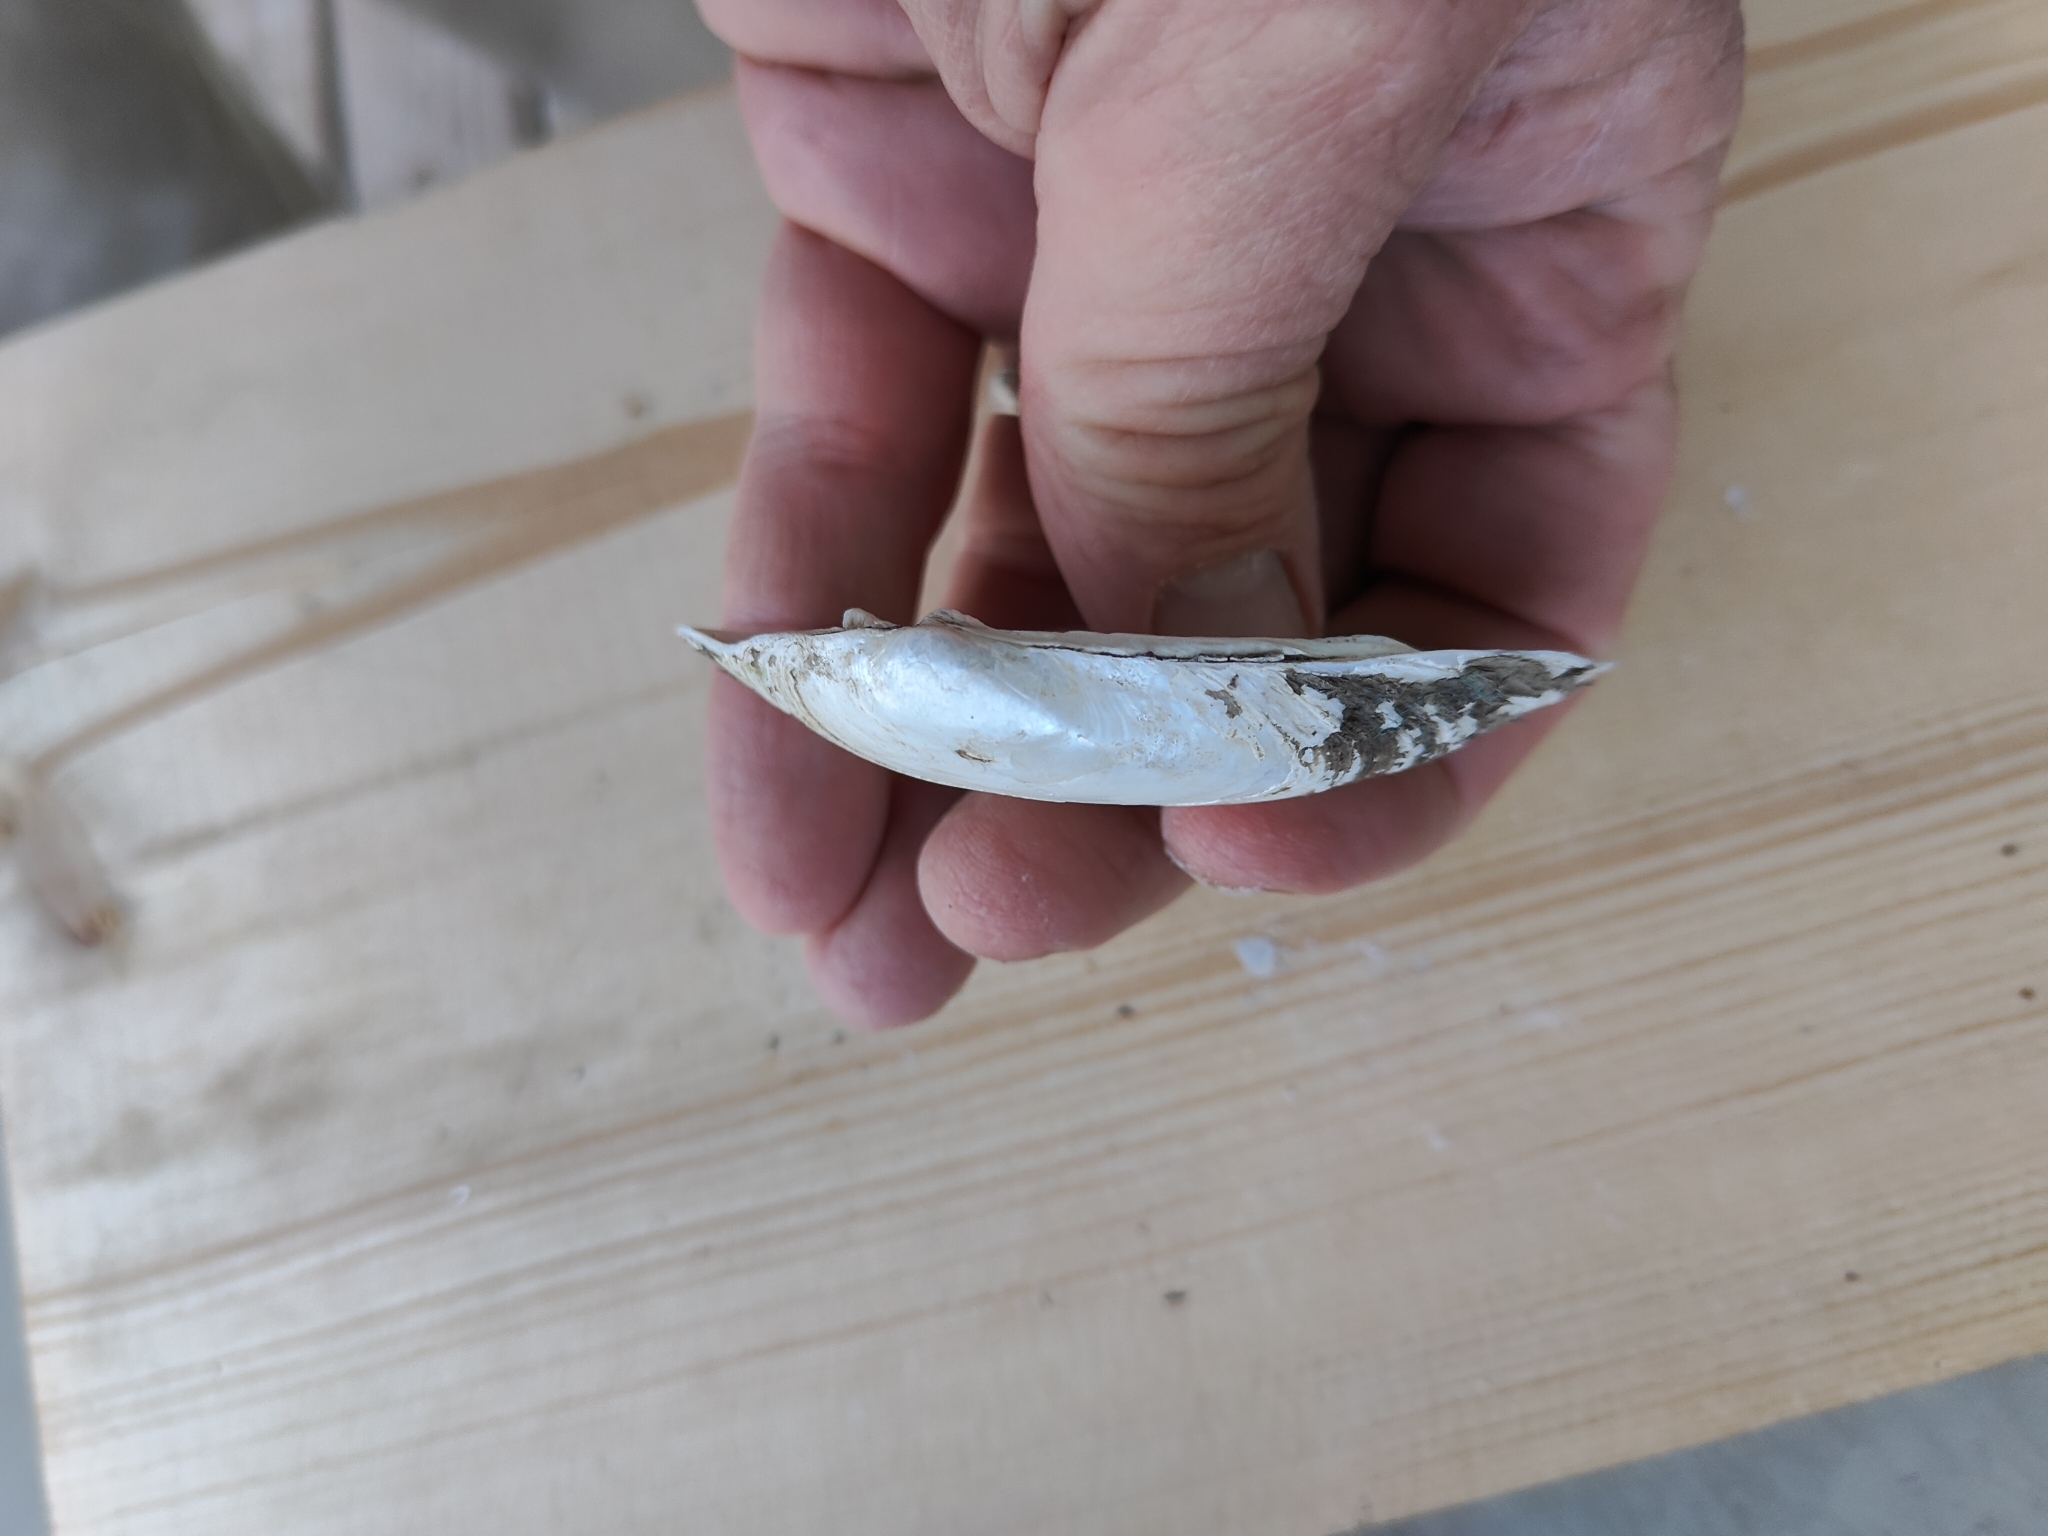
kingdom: Animalia
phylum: Mollusca
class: Bivalvia
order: Unionida
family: Unionidae
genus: Lampsilis
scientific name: Lampsilis siliquoidea
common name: Fatmucket
